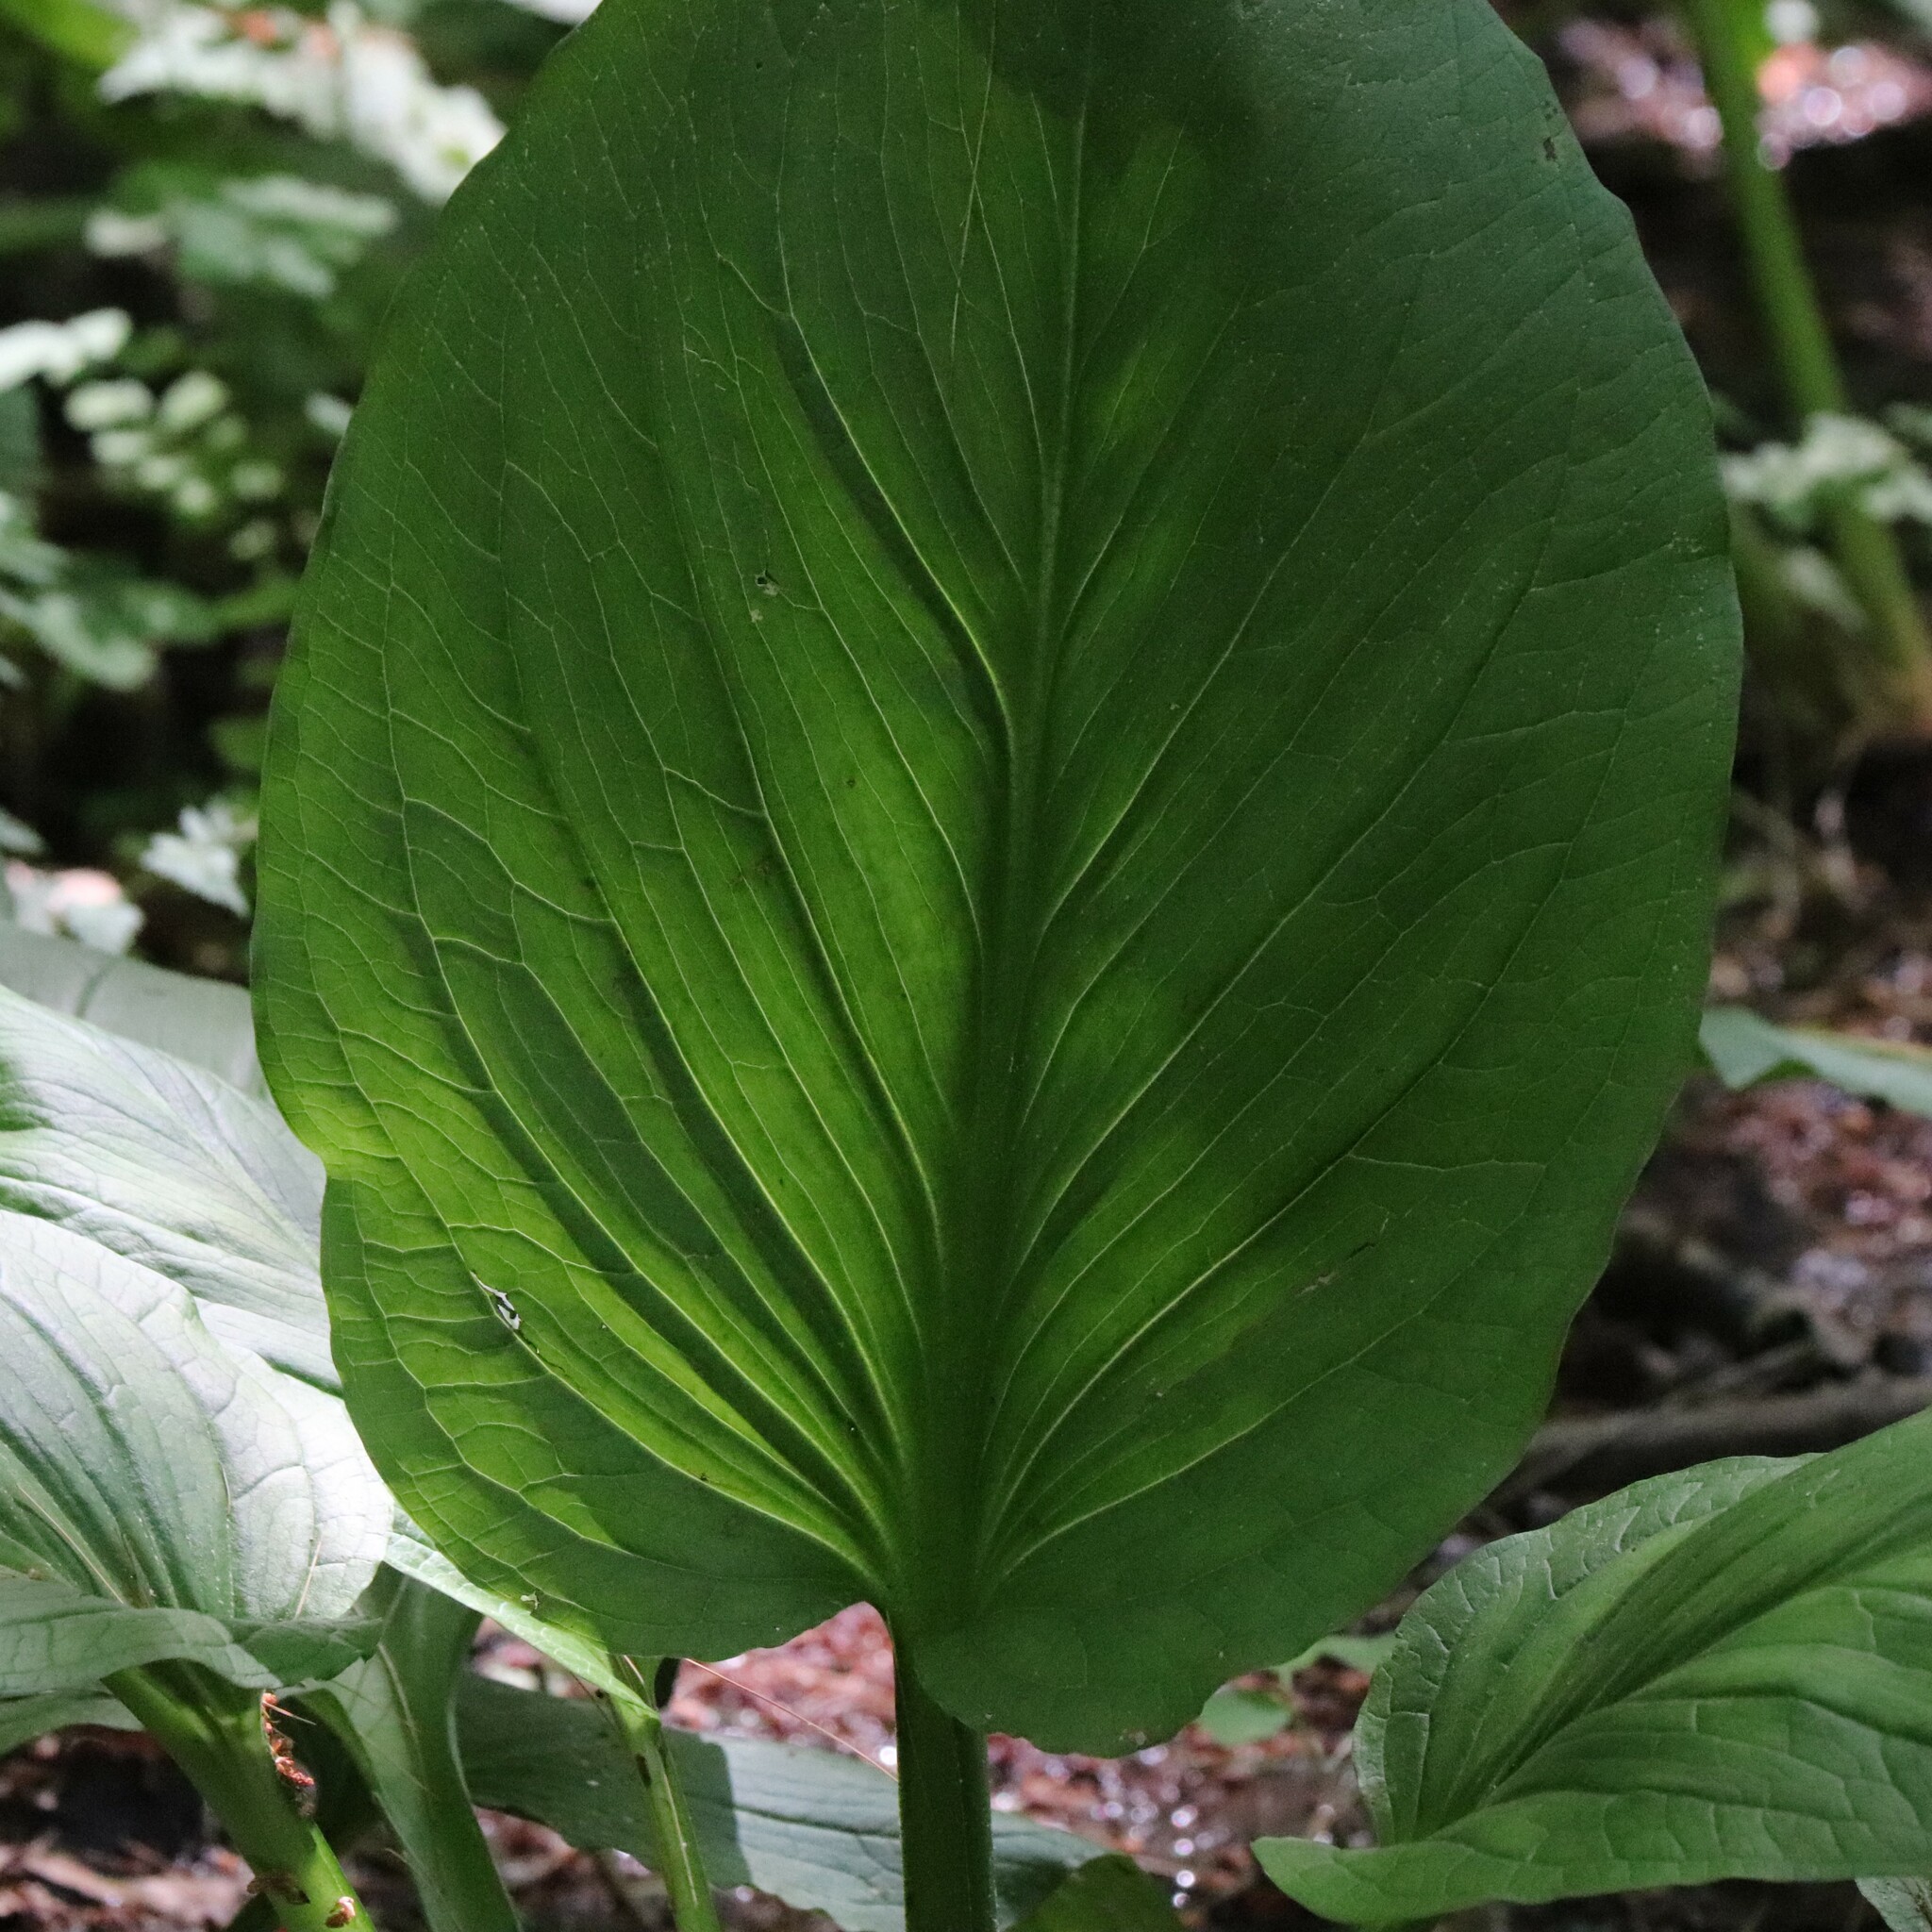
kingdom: Plantae
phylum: Tracheophyta
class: Liliopsida
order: Alismatales
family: Araceae
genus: Symplocarpus
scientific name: Symplocarpus foetidus
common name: Eastern skunk cabbage
